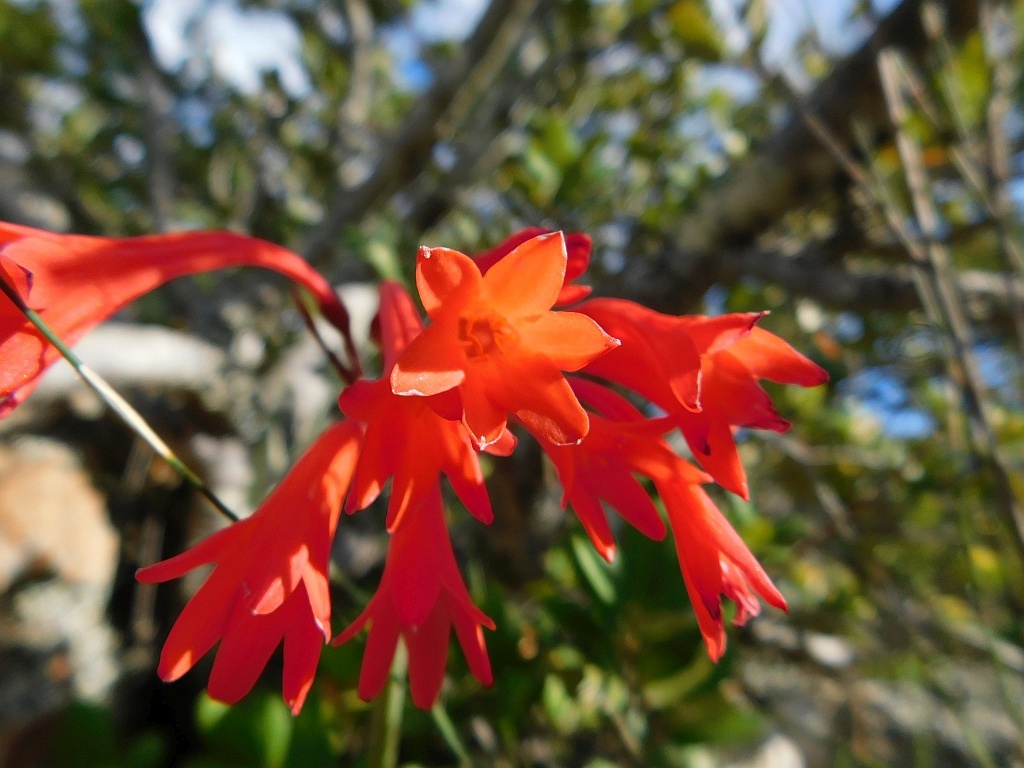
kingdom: Plantae
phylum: Tracheophyta
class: Liliopsida
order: Asparagales
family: Amaryllidaceae
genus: Cyrtanthus
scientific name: Cyrtanthus collinus
